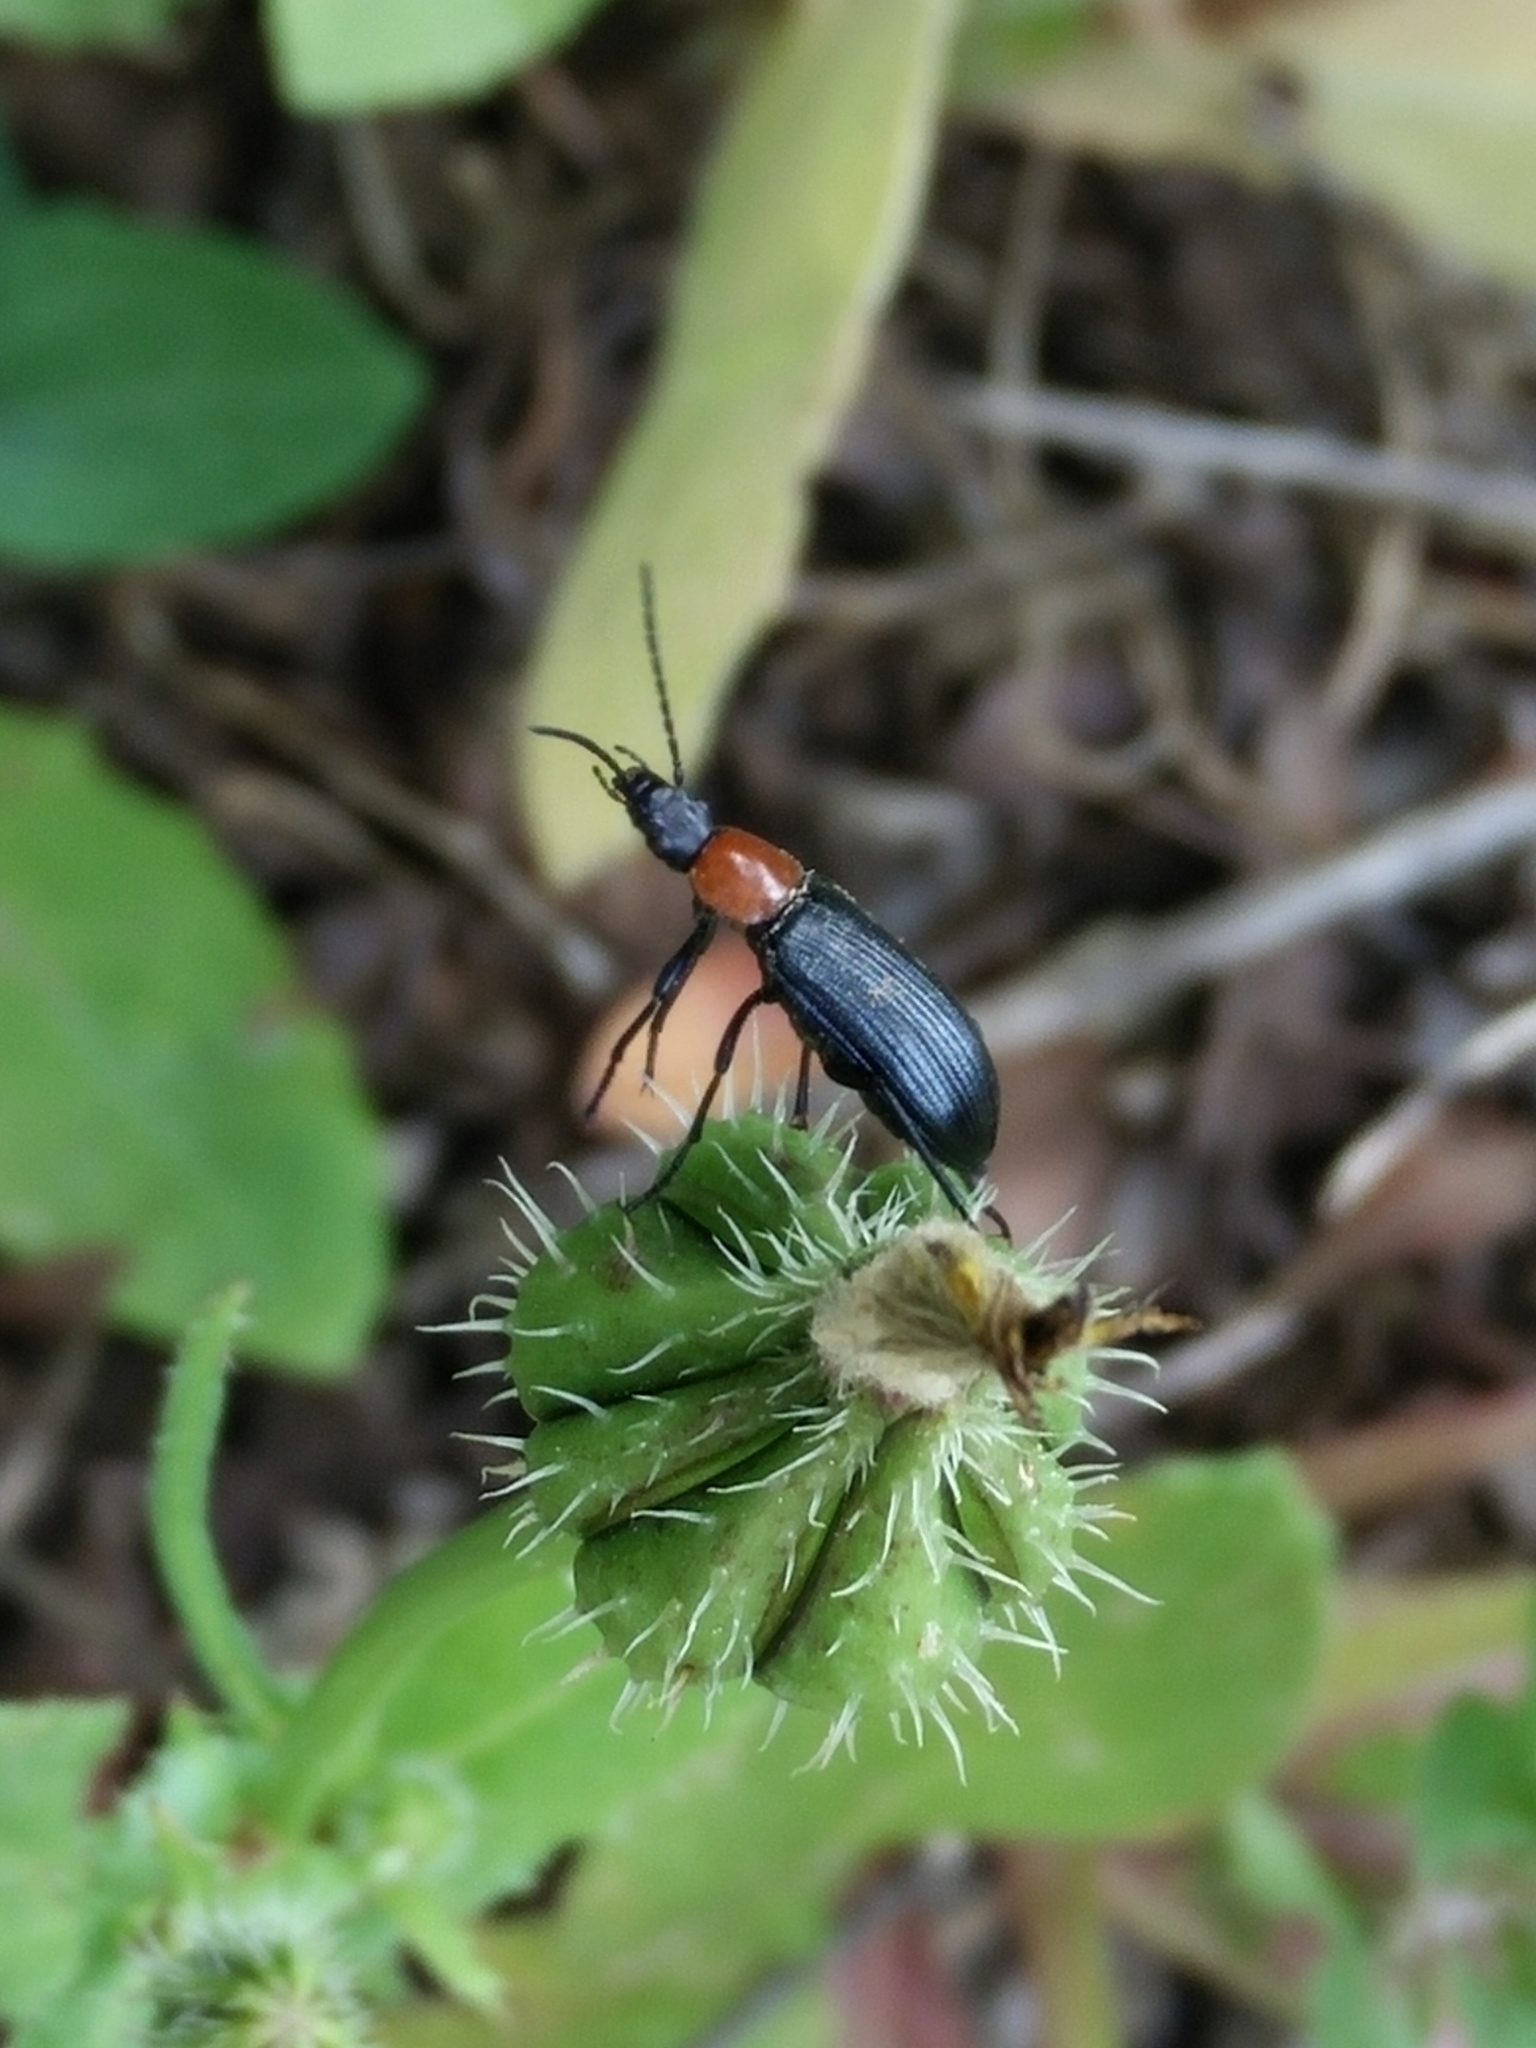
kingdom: Animalia
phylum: Arthropoda
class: Insecta
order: Coleoptera
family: Tenebrionidae
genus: Heliotaurus
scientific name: Heliotaurus ruficollis
